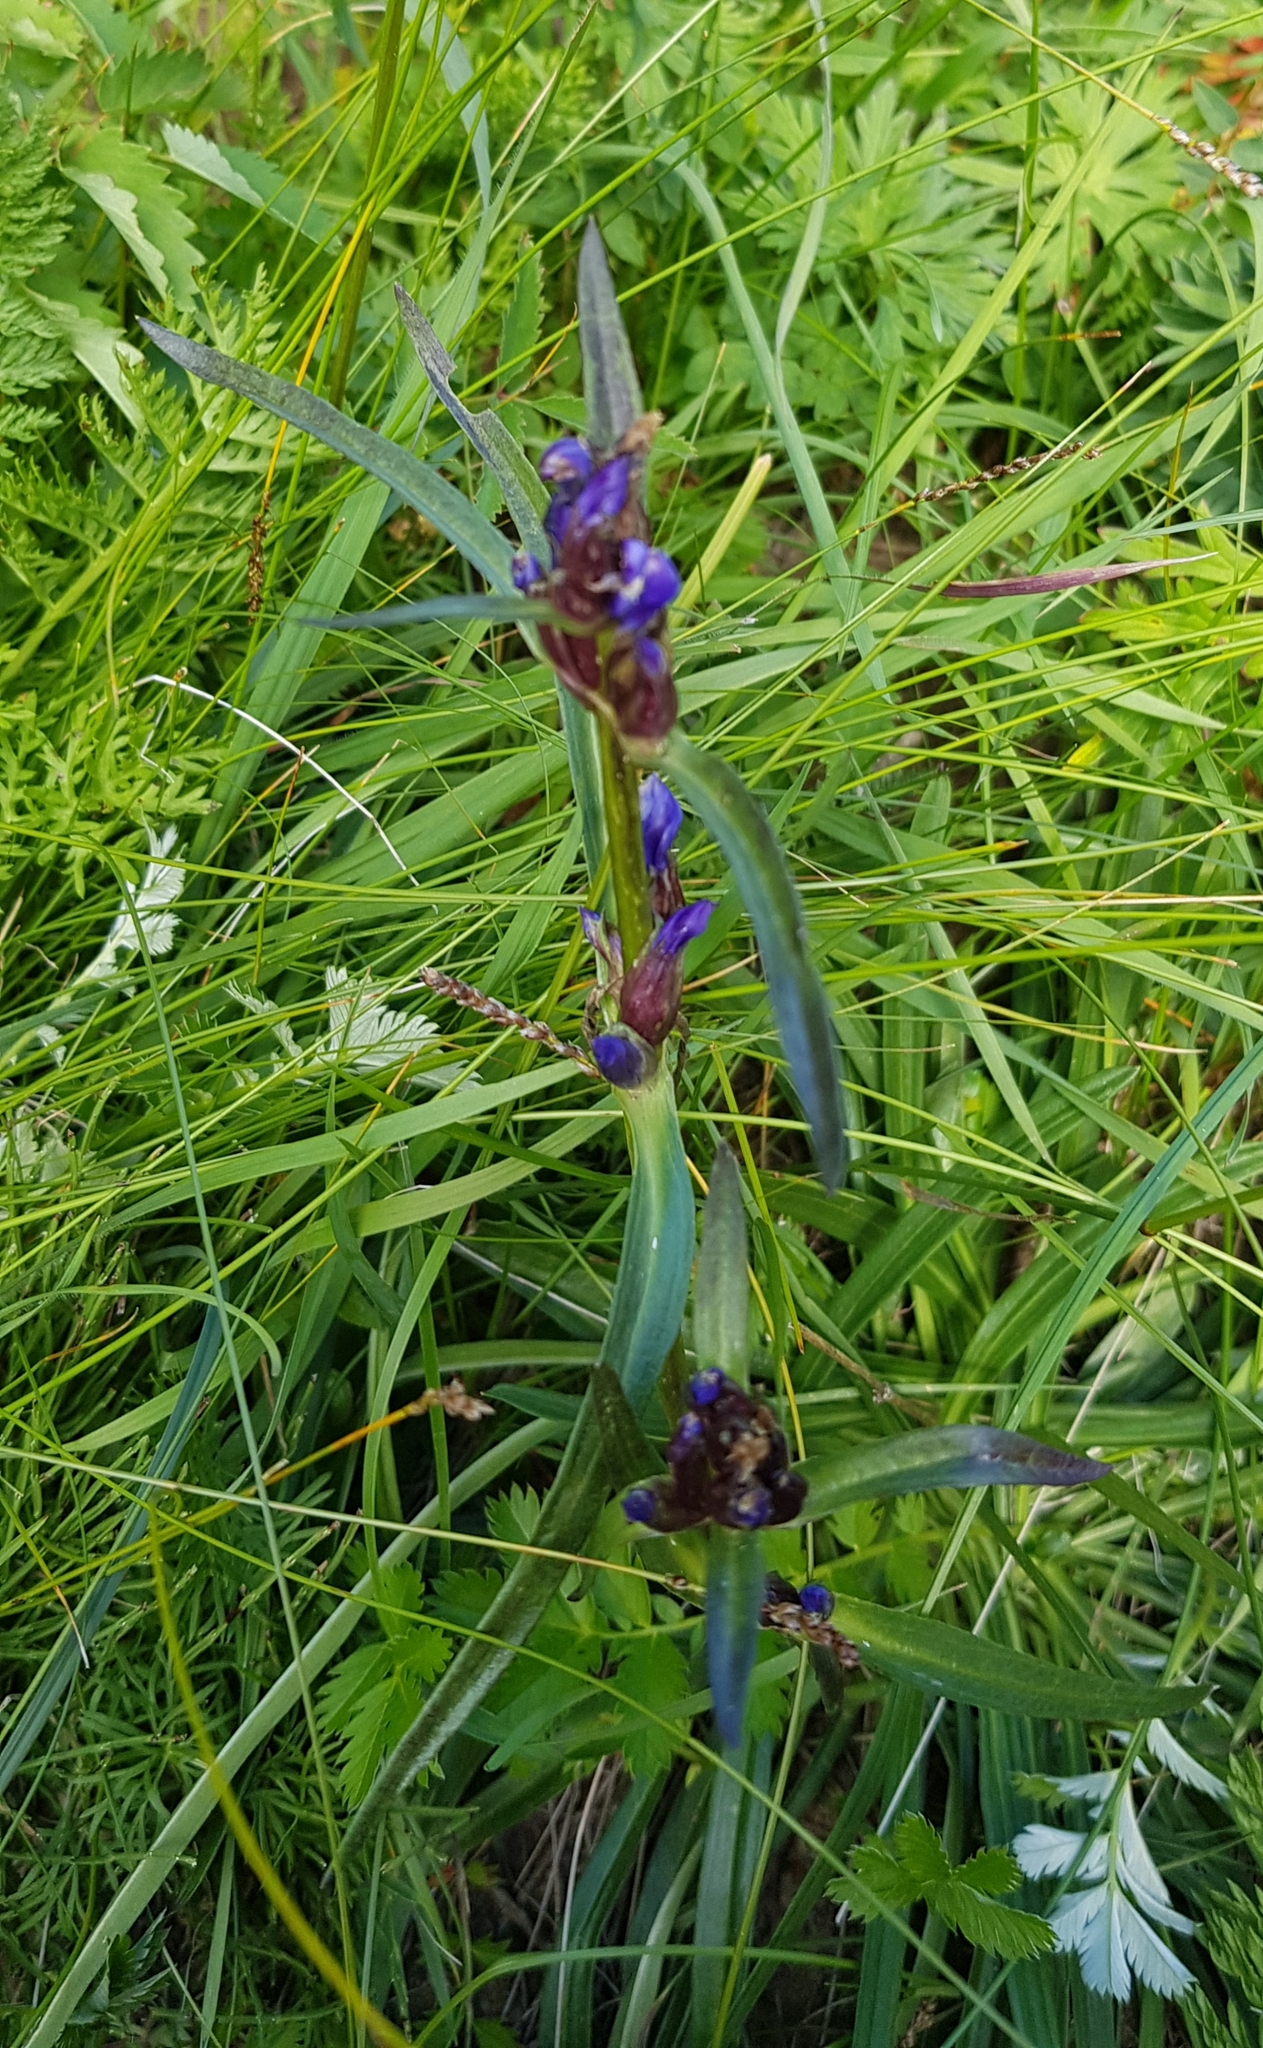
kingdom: Plantae
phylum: Tracheophyta
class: Magnoliopsida
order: Gentianales
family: Gentianaceae
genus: Gentiana
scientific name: Gentiana decumbens
